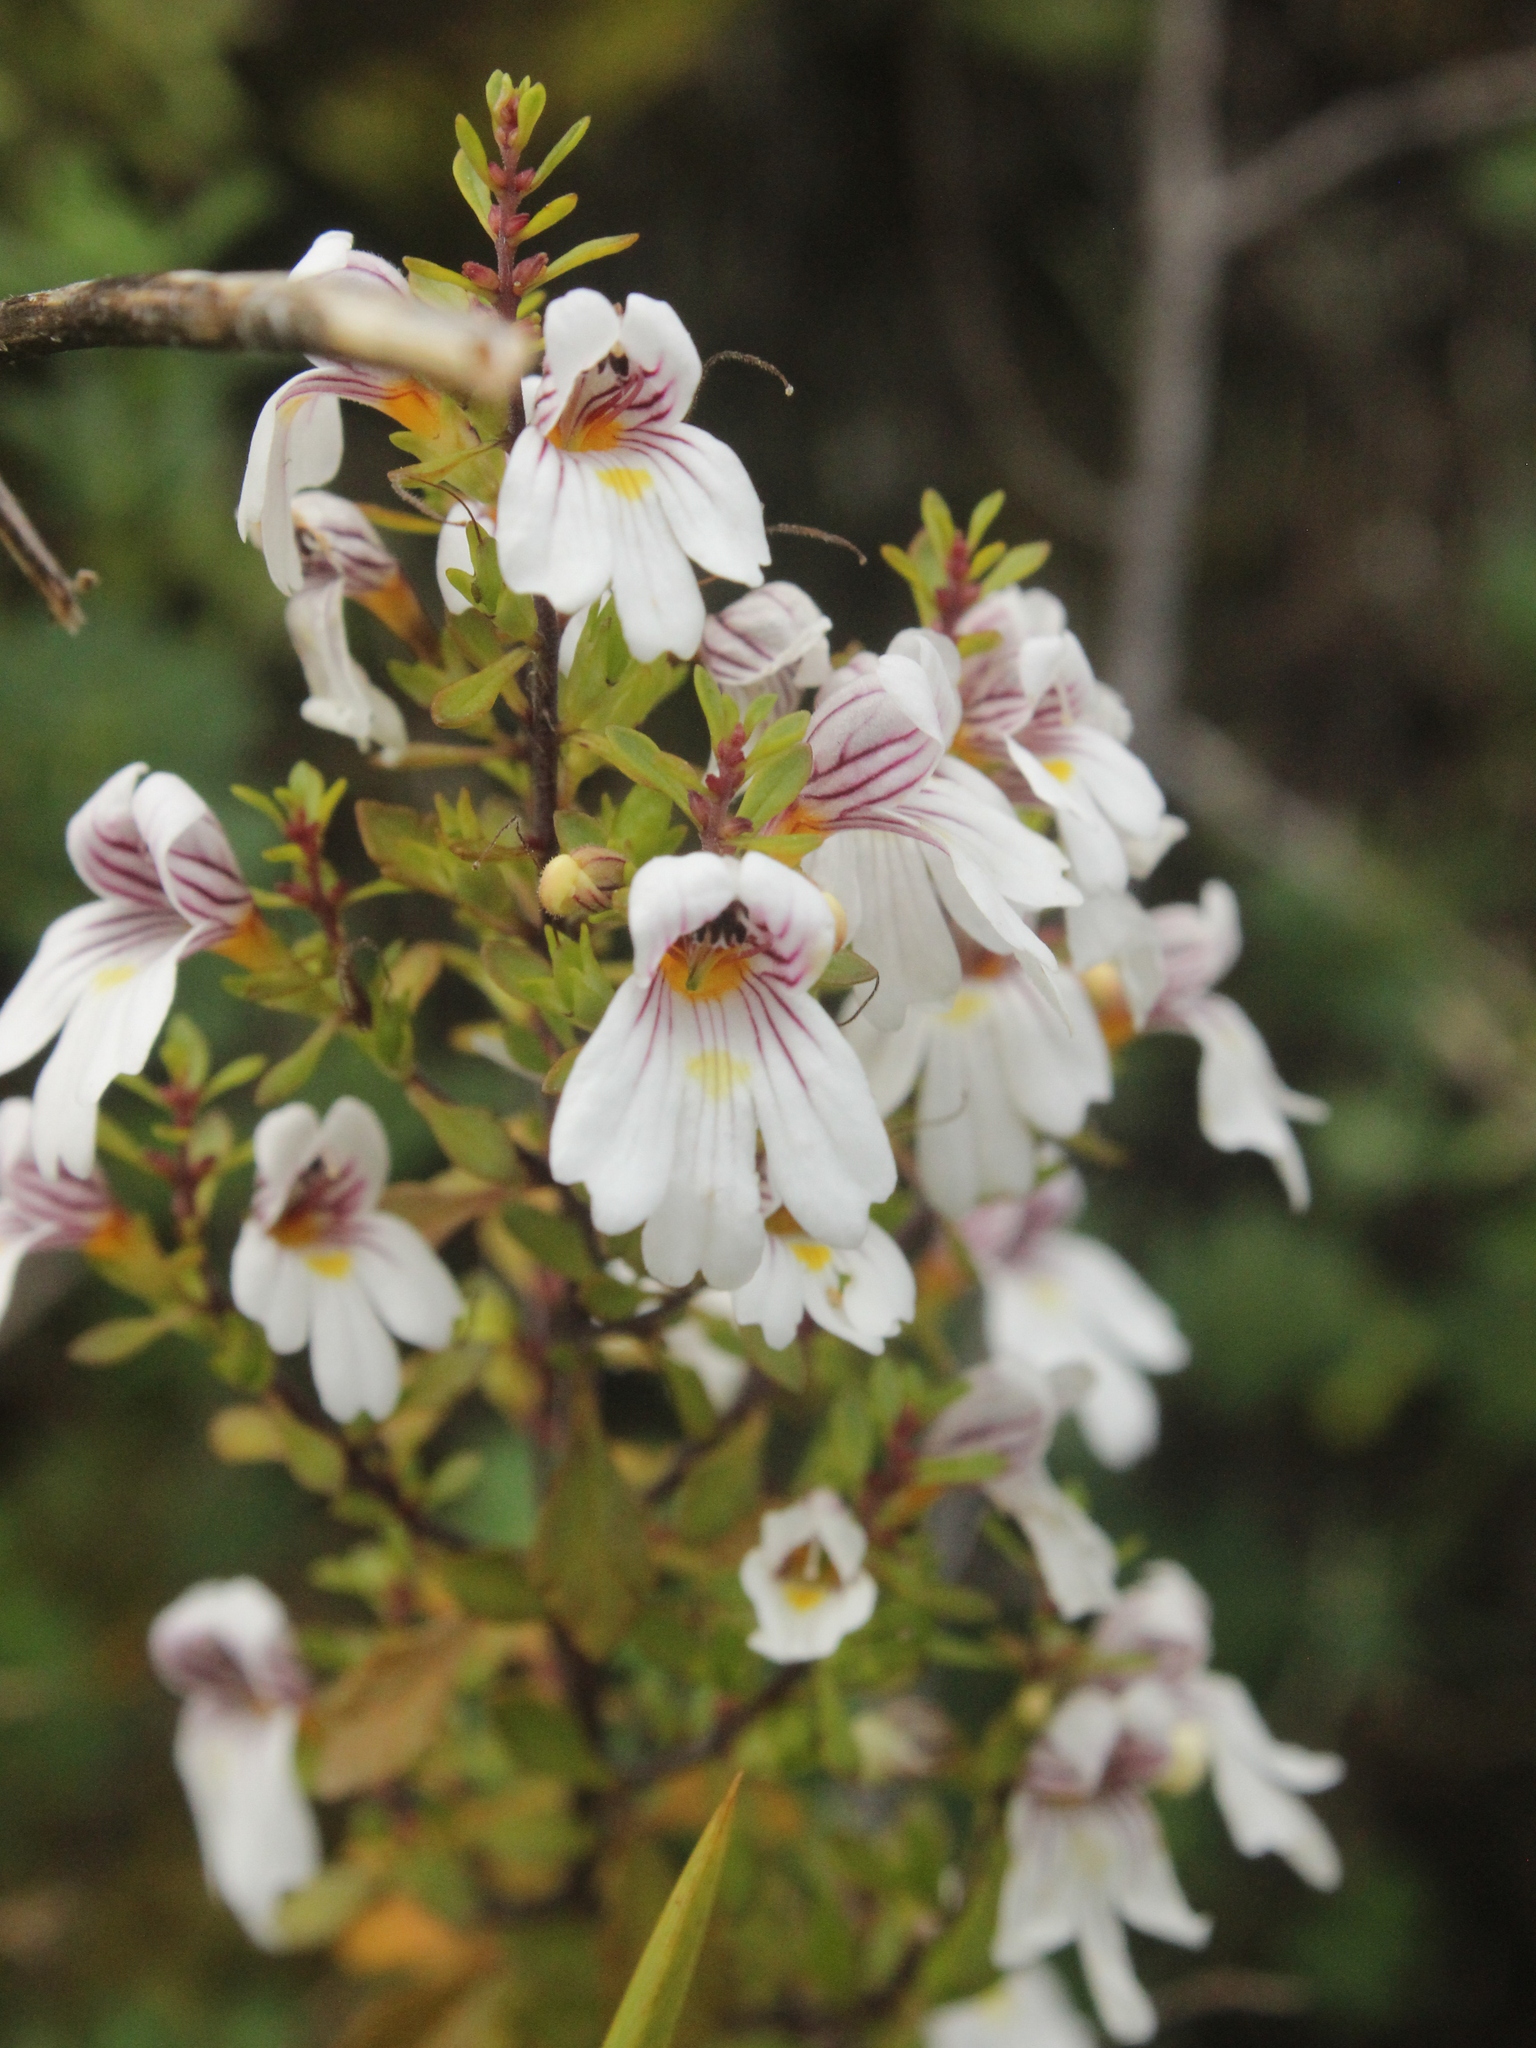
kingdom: Plantae
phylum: Tracheophyta
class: Magnoliopsida
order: Lamiales
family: Orobanchaceae
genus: Euphrasia
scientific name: Euphrasia cuneata
